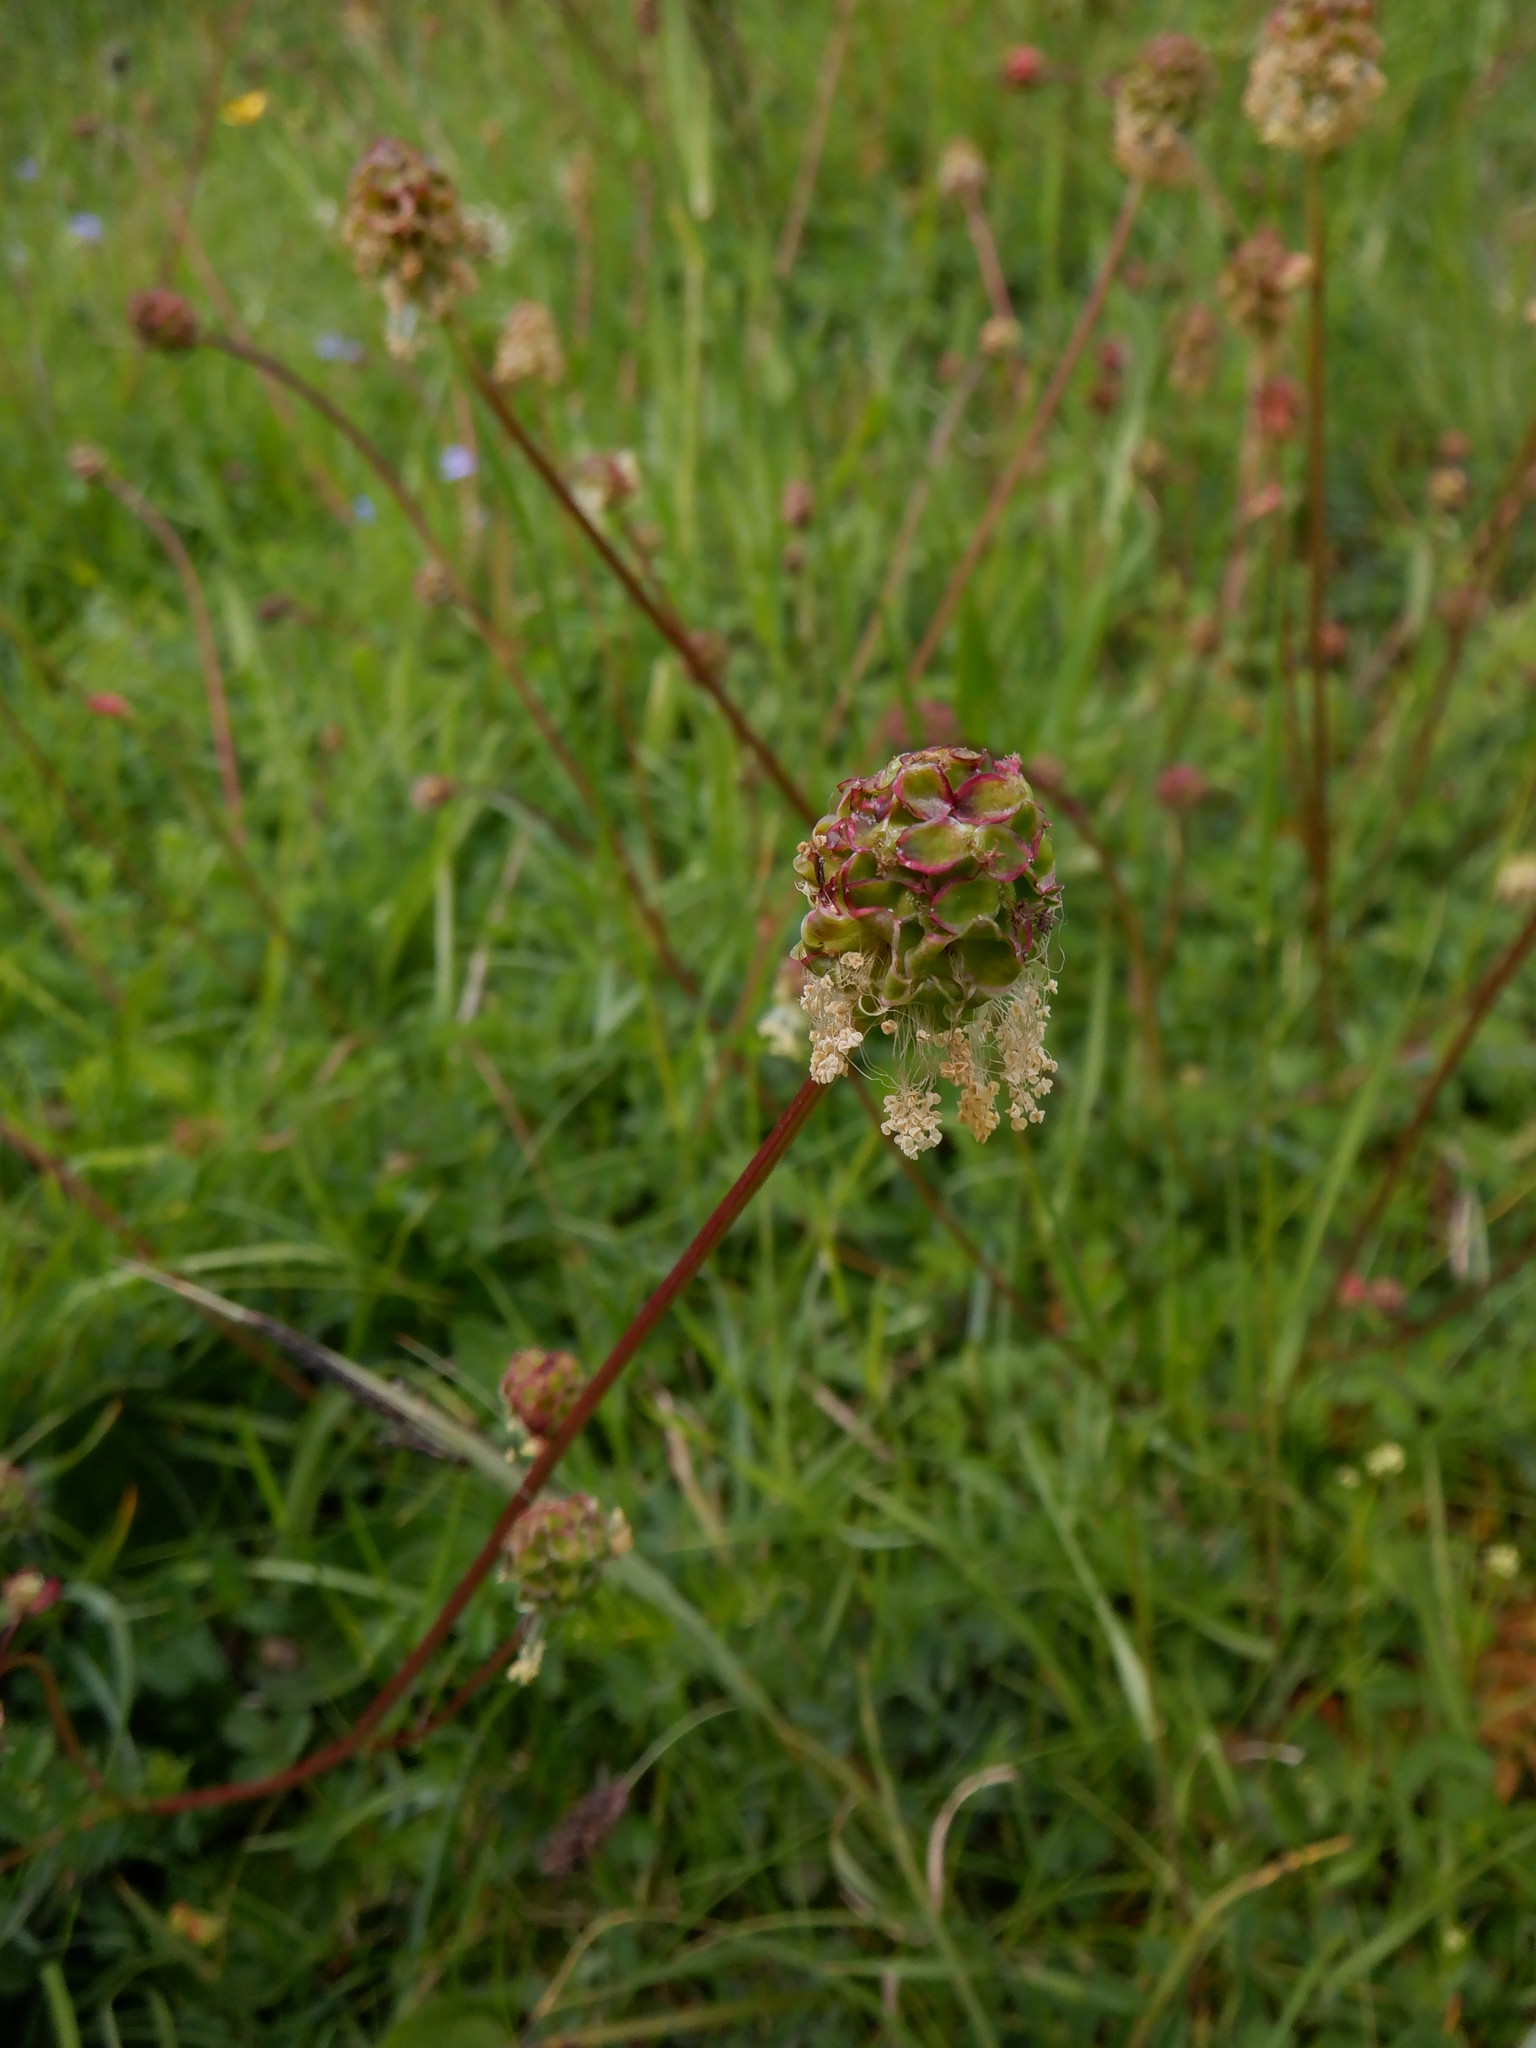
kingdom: Plantae
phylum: Tracheophyta
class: Magnoliopsida
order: Rosales
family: Rosaceae
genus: Poterium
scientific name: Poterium sanguisorba
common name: Salad burnet
